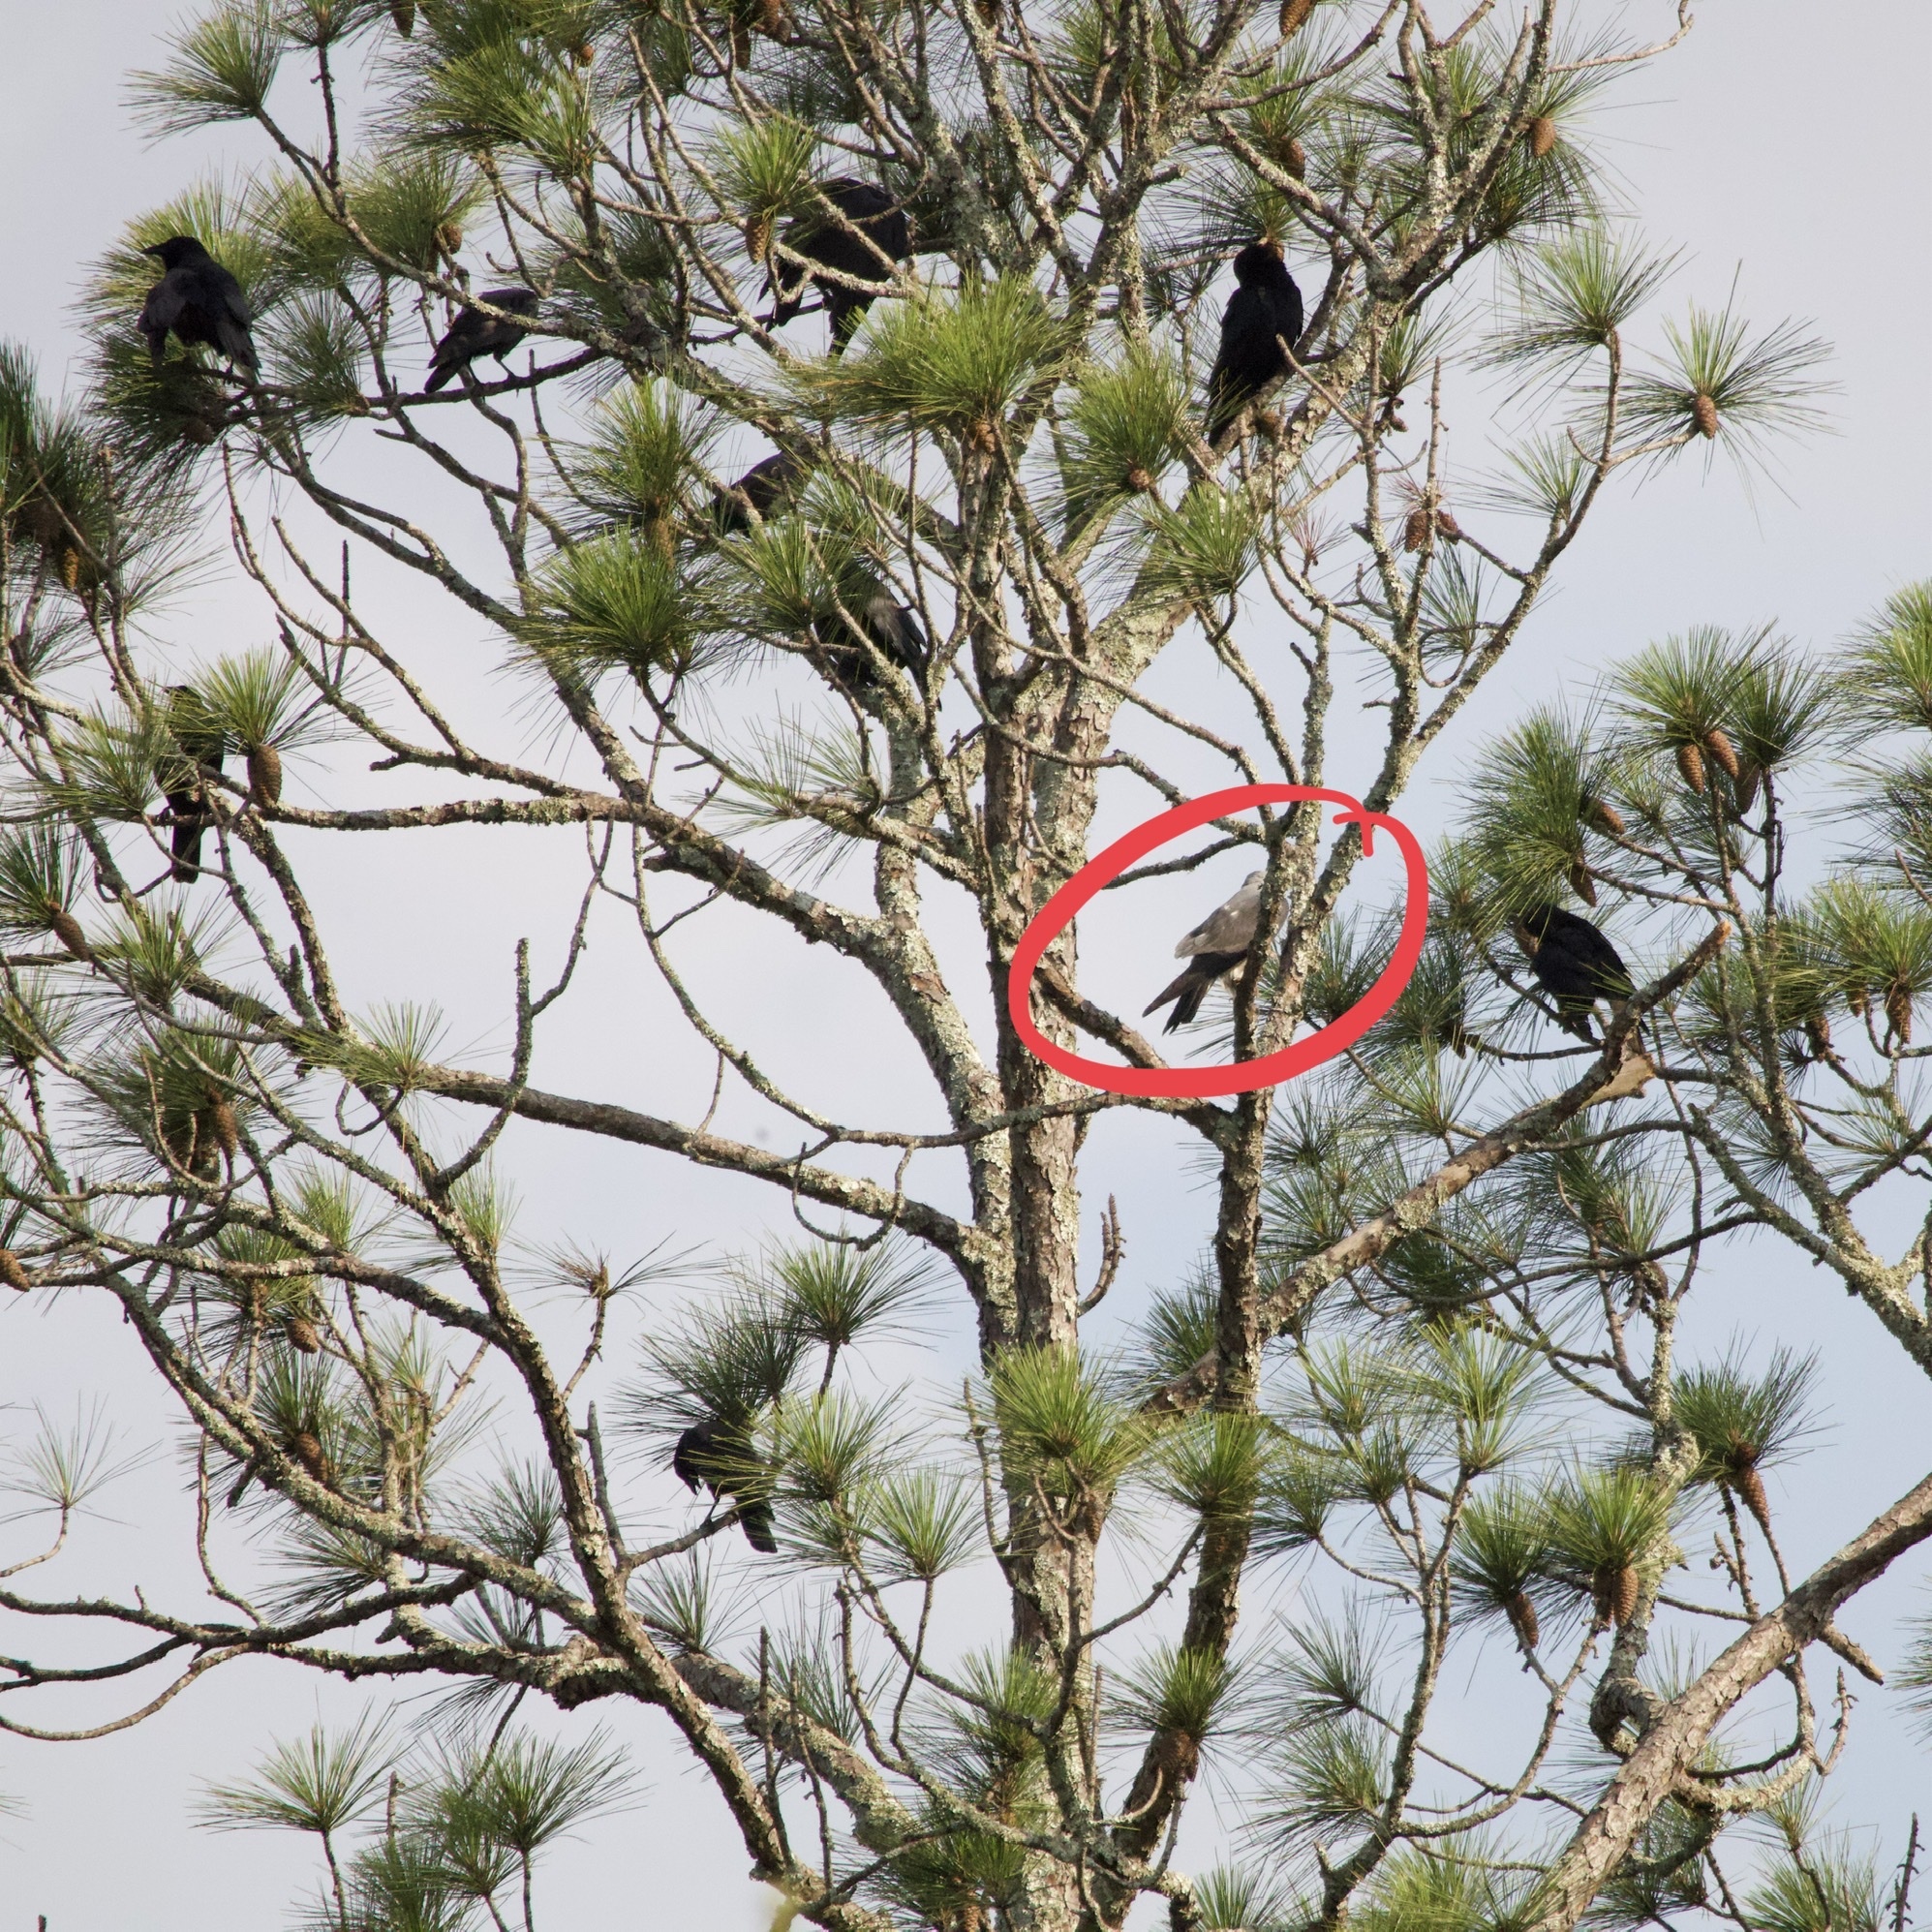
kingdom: Animalia
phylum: Chordata
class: Aves
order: Accipitriformes
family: Accipitridae
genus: Ictinia
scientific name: Ictinia mississippiensis
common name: Mississippi kite
